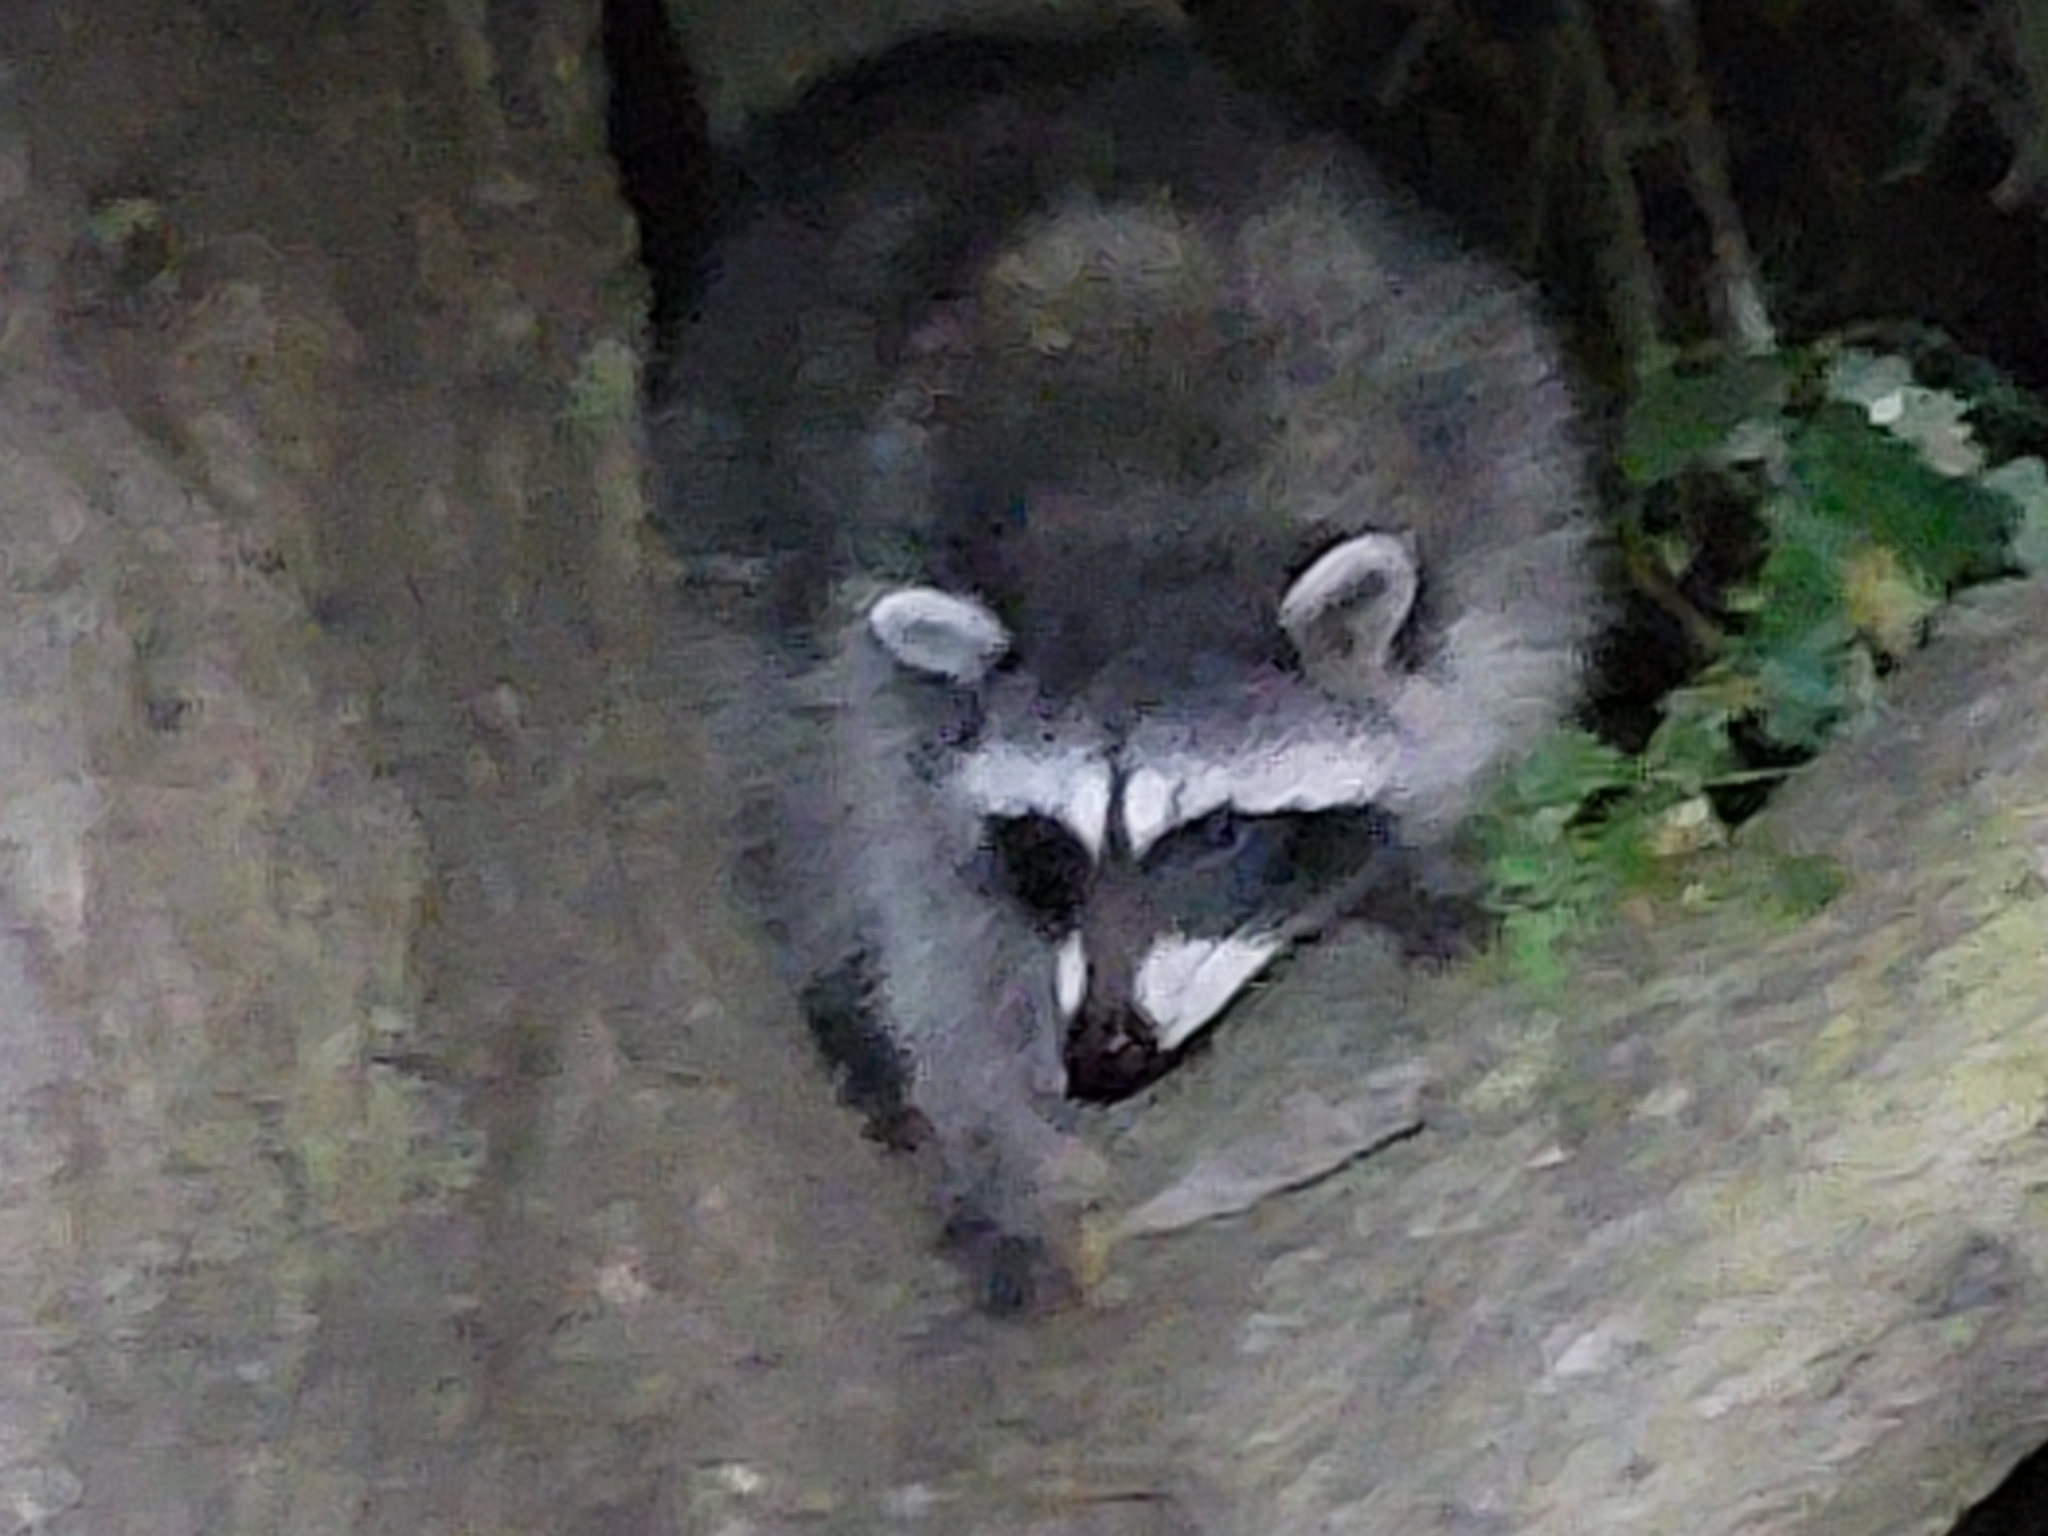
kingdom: Animalia
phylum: Chordata
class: Mammalia
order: Carnivora
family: Procyonidae
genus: Procyon
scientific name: Procyon lotor
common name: Raccoon
